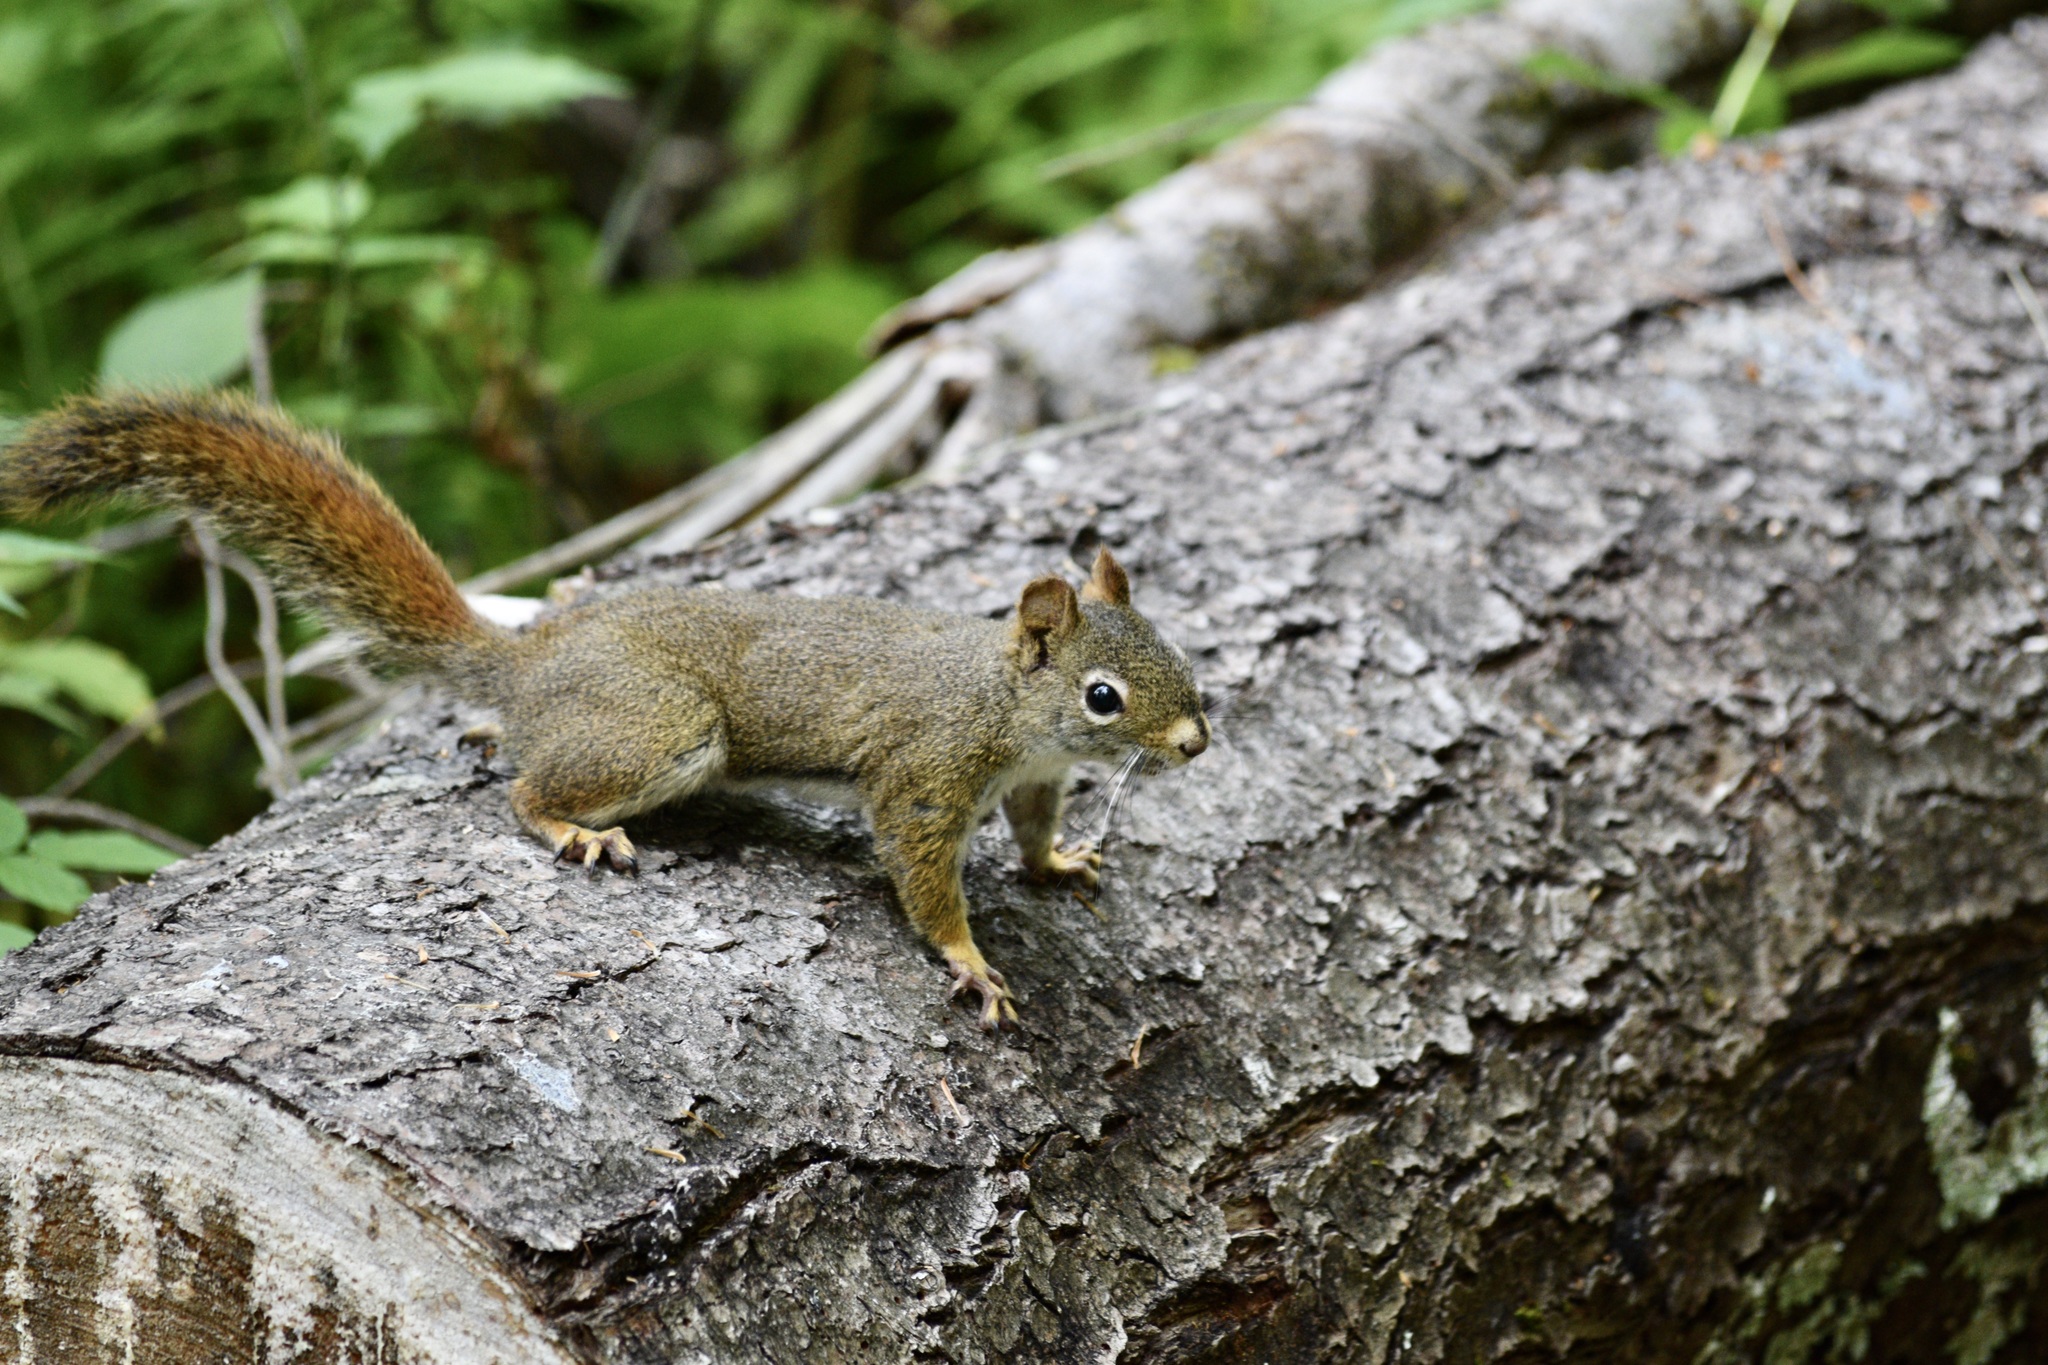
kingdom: Animalia
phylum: Chordata
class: Mammalia
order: Rodentia
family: Sciuridae
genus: Tamiasciurus
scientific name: Tamiasciurus hudsonicus
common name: Red squirrel
